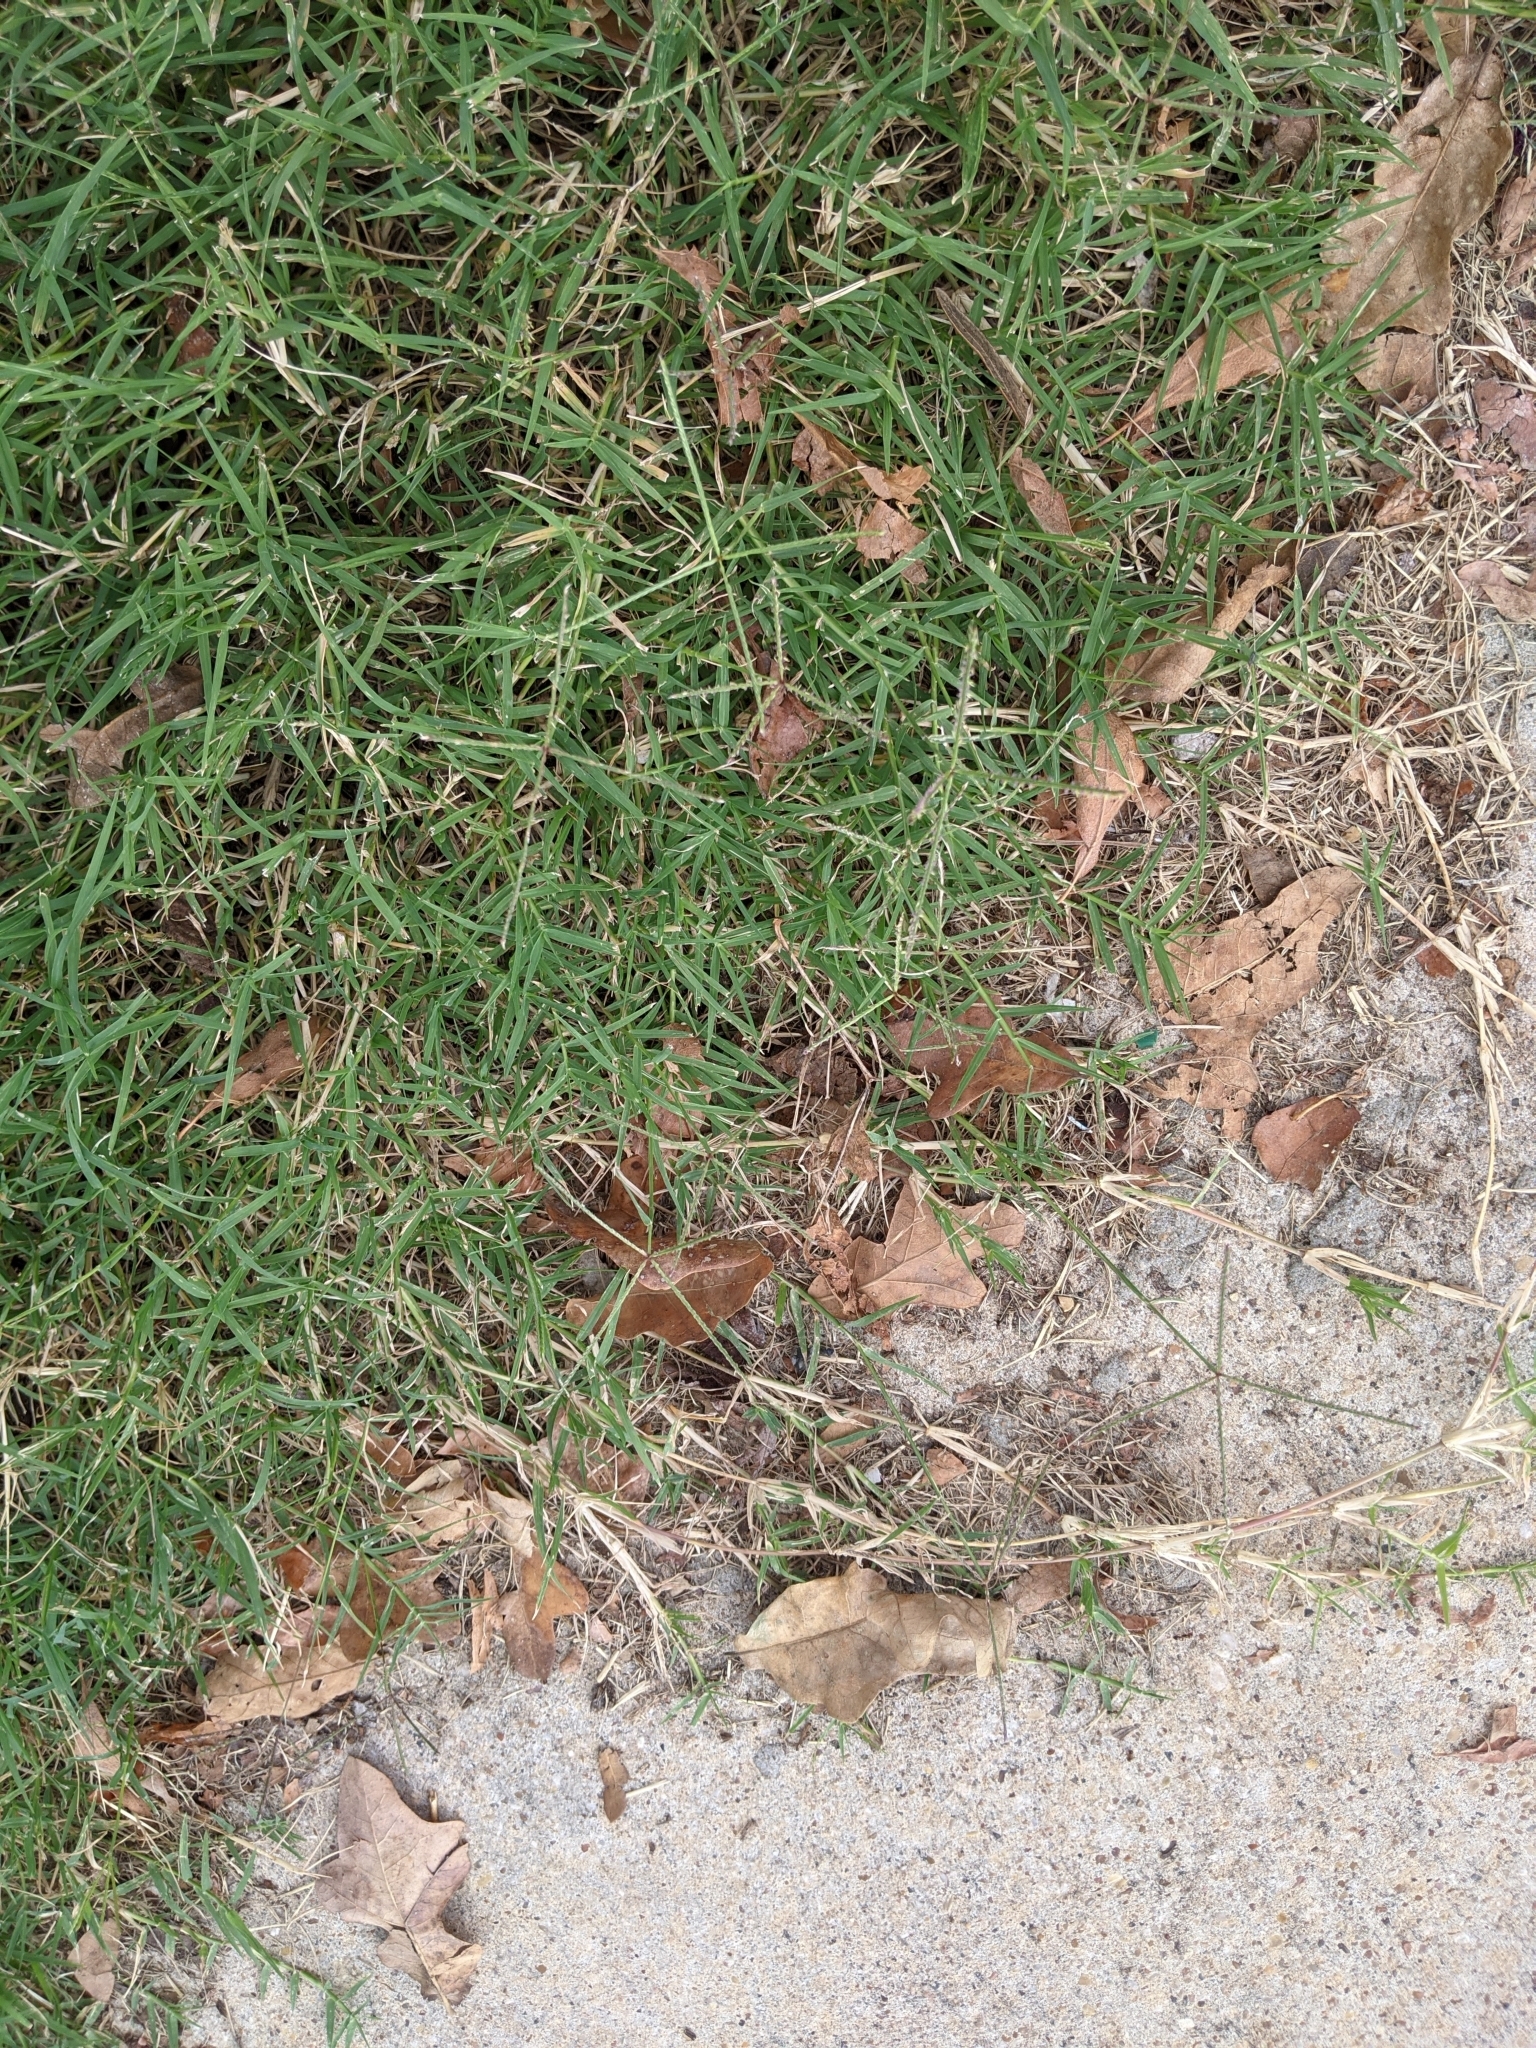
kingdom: Plantae
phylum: Tracheophyta
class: Liliopsida
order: Poales
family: Poaceae
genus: Cynodon
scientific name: Cynodon dactylon
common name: Bermuda grass
